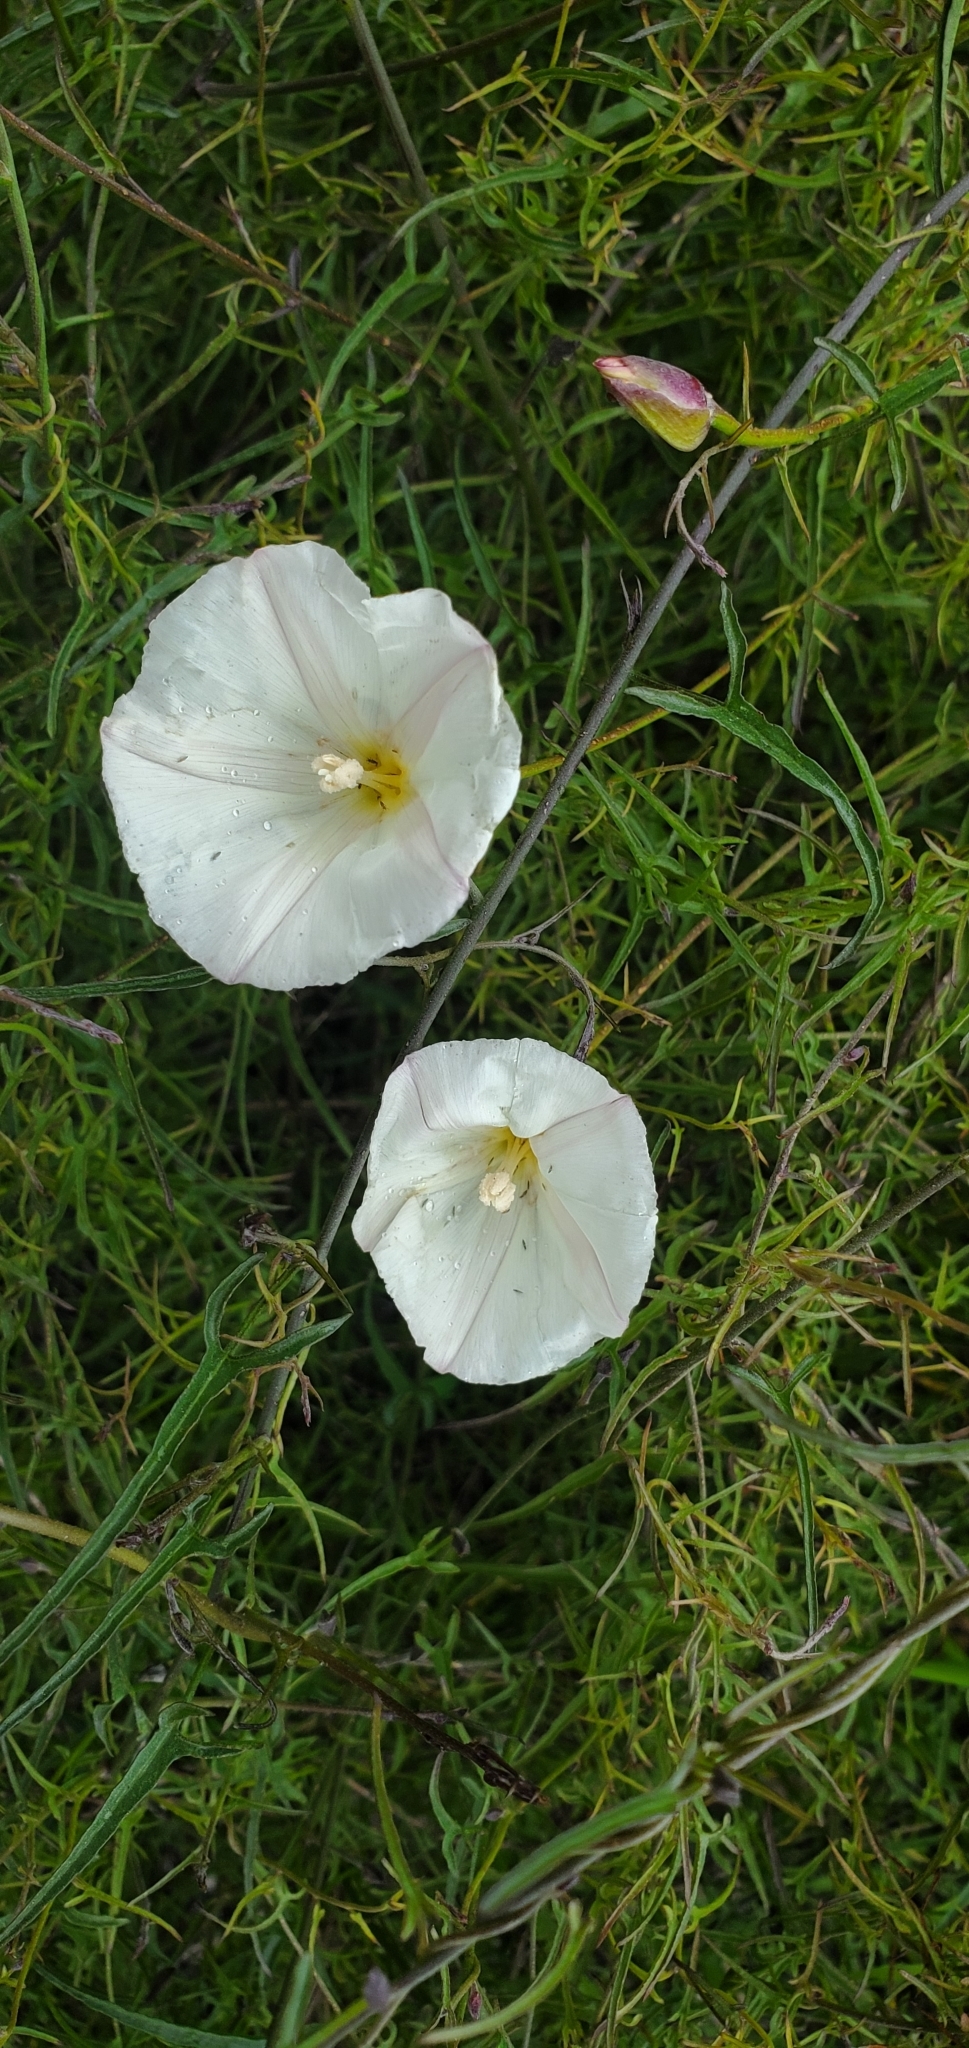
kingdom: Plantae
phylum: Tracheophyta
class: Magnoliopsida
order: Solanales
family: Convolvulaceae
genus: Calystegia
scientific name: Calystegia macrostegia
